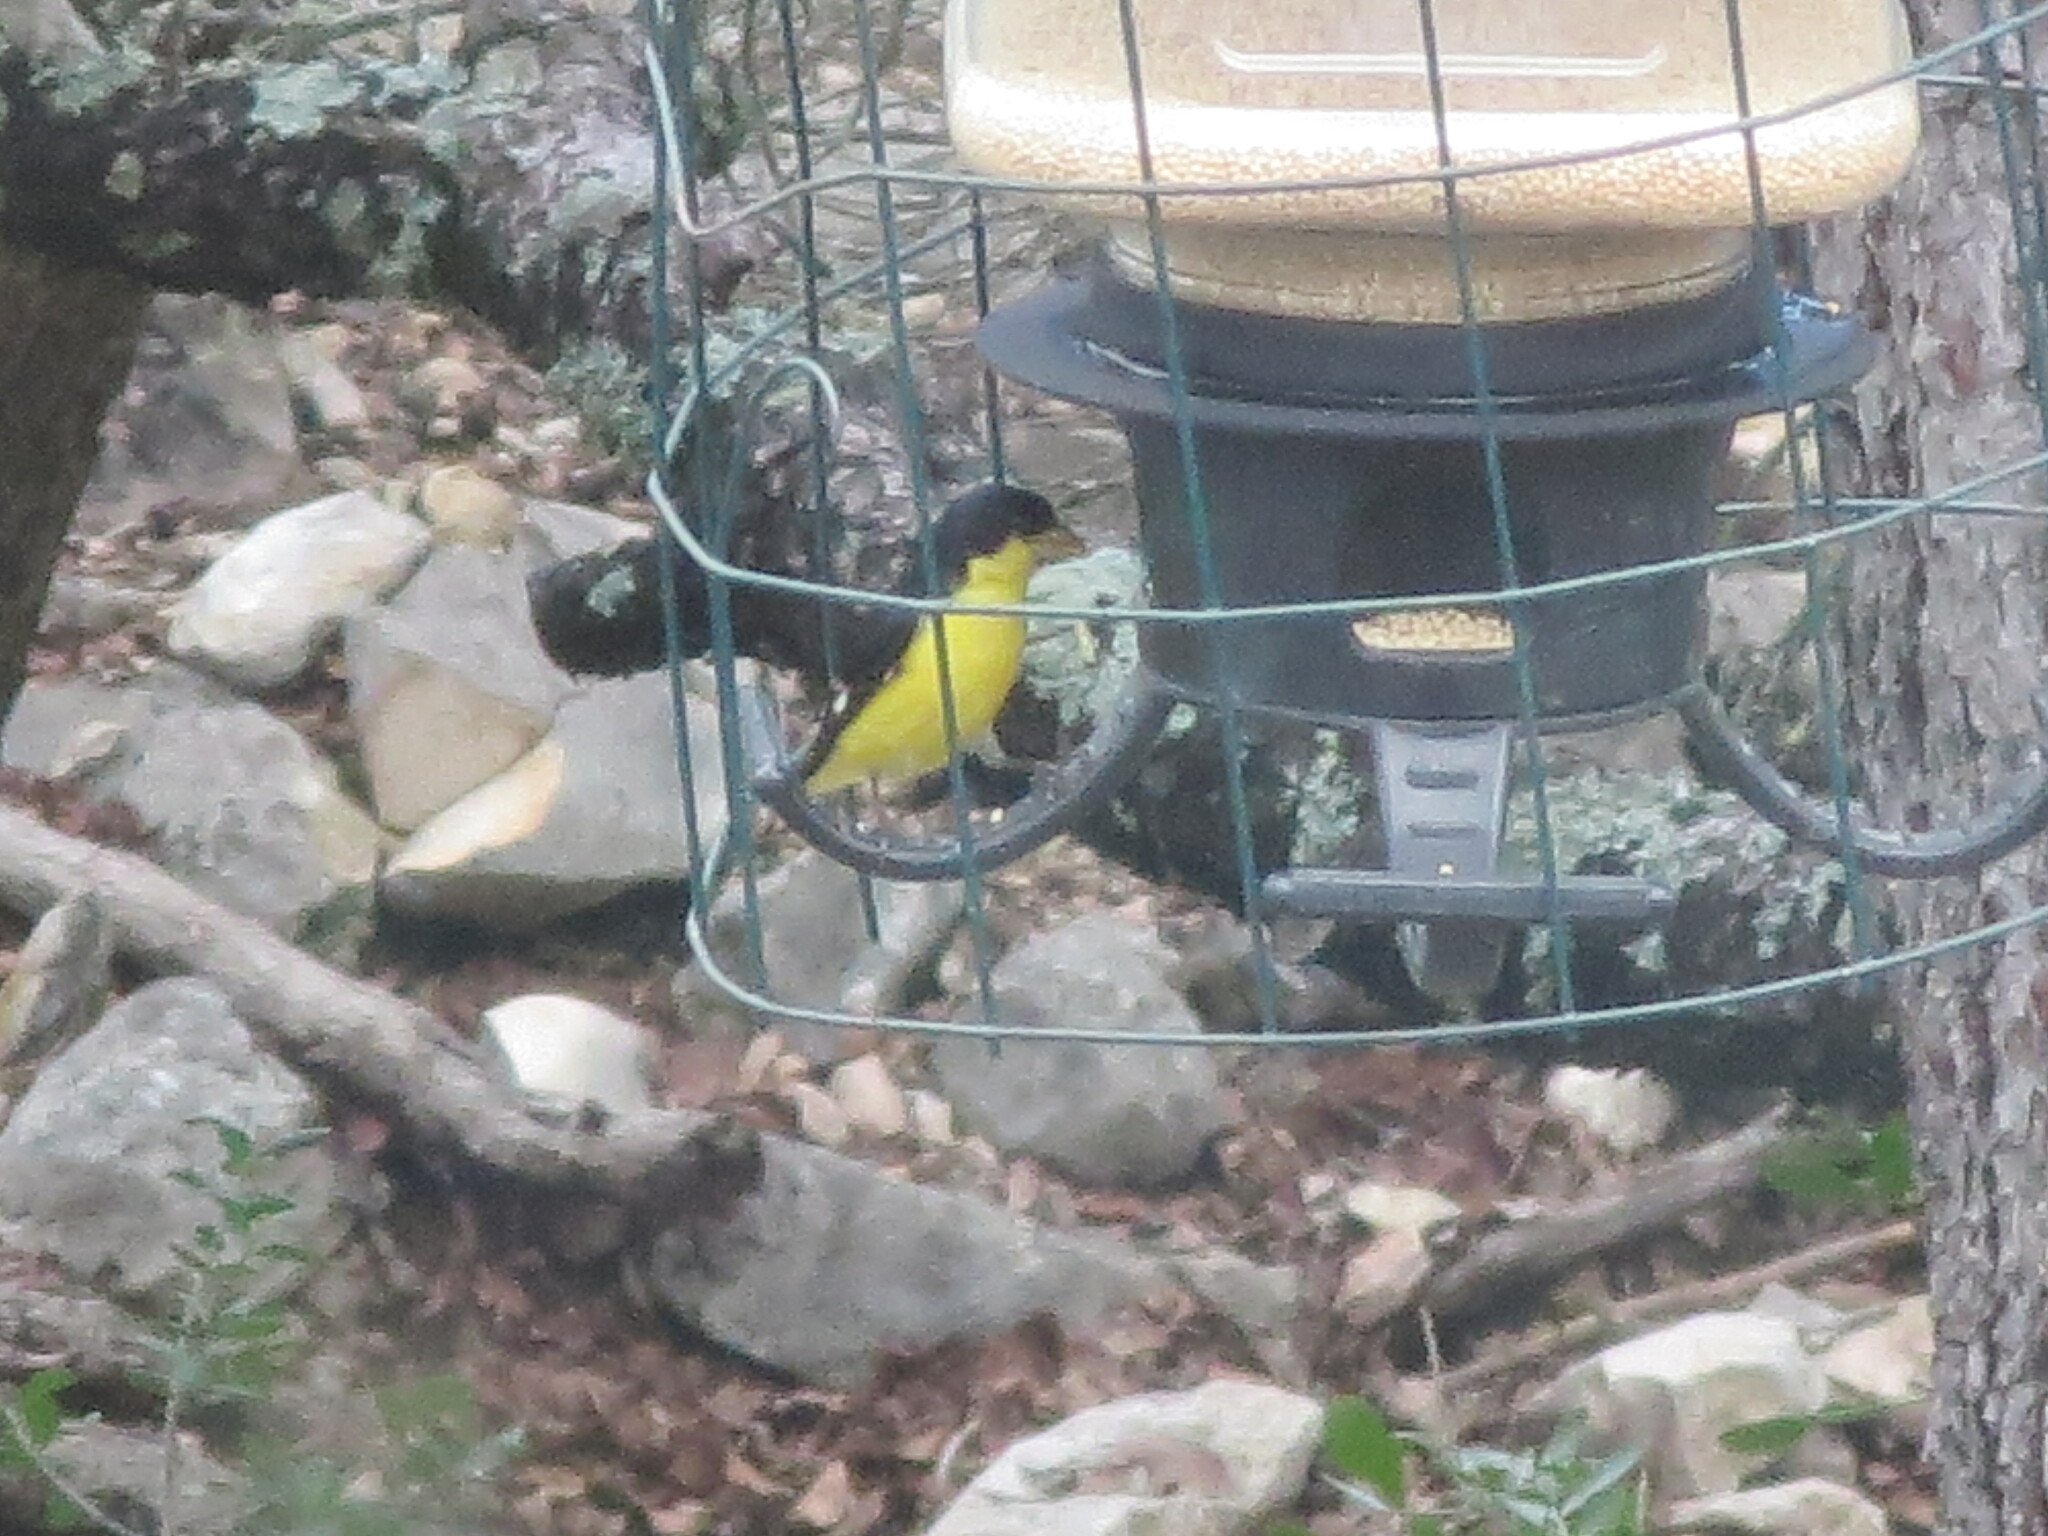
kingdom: Animalia
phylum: Chordata
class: Aves
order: Passeriformes
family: Fringillidae
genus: Spinus
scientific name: Spinus psaltria
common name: Lesser goldfinch
